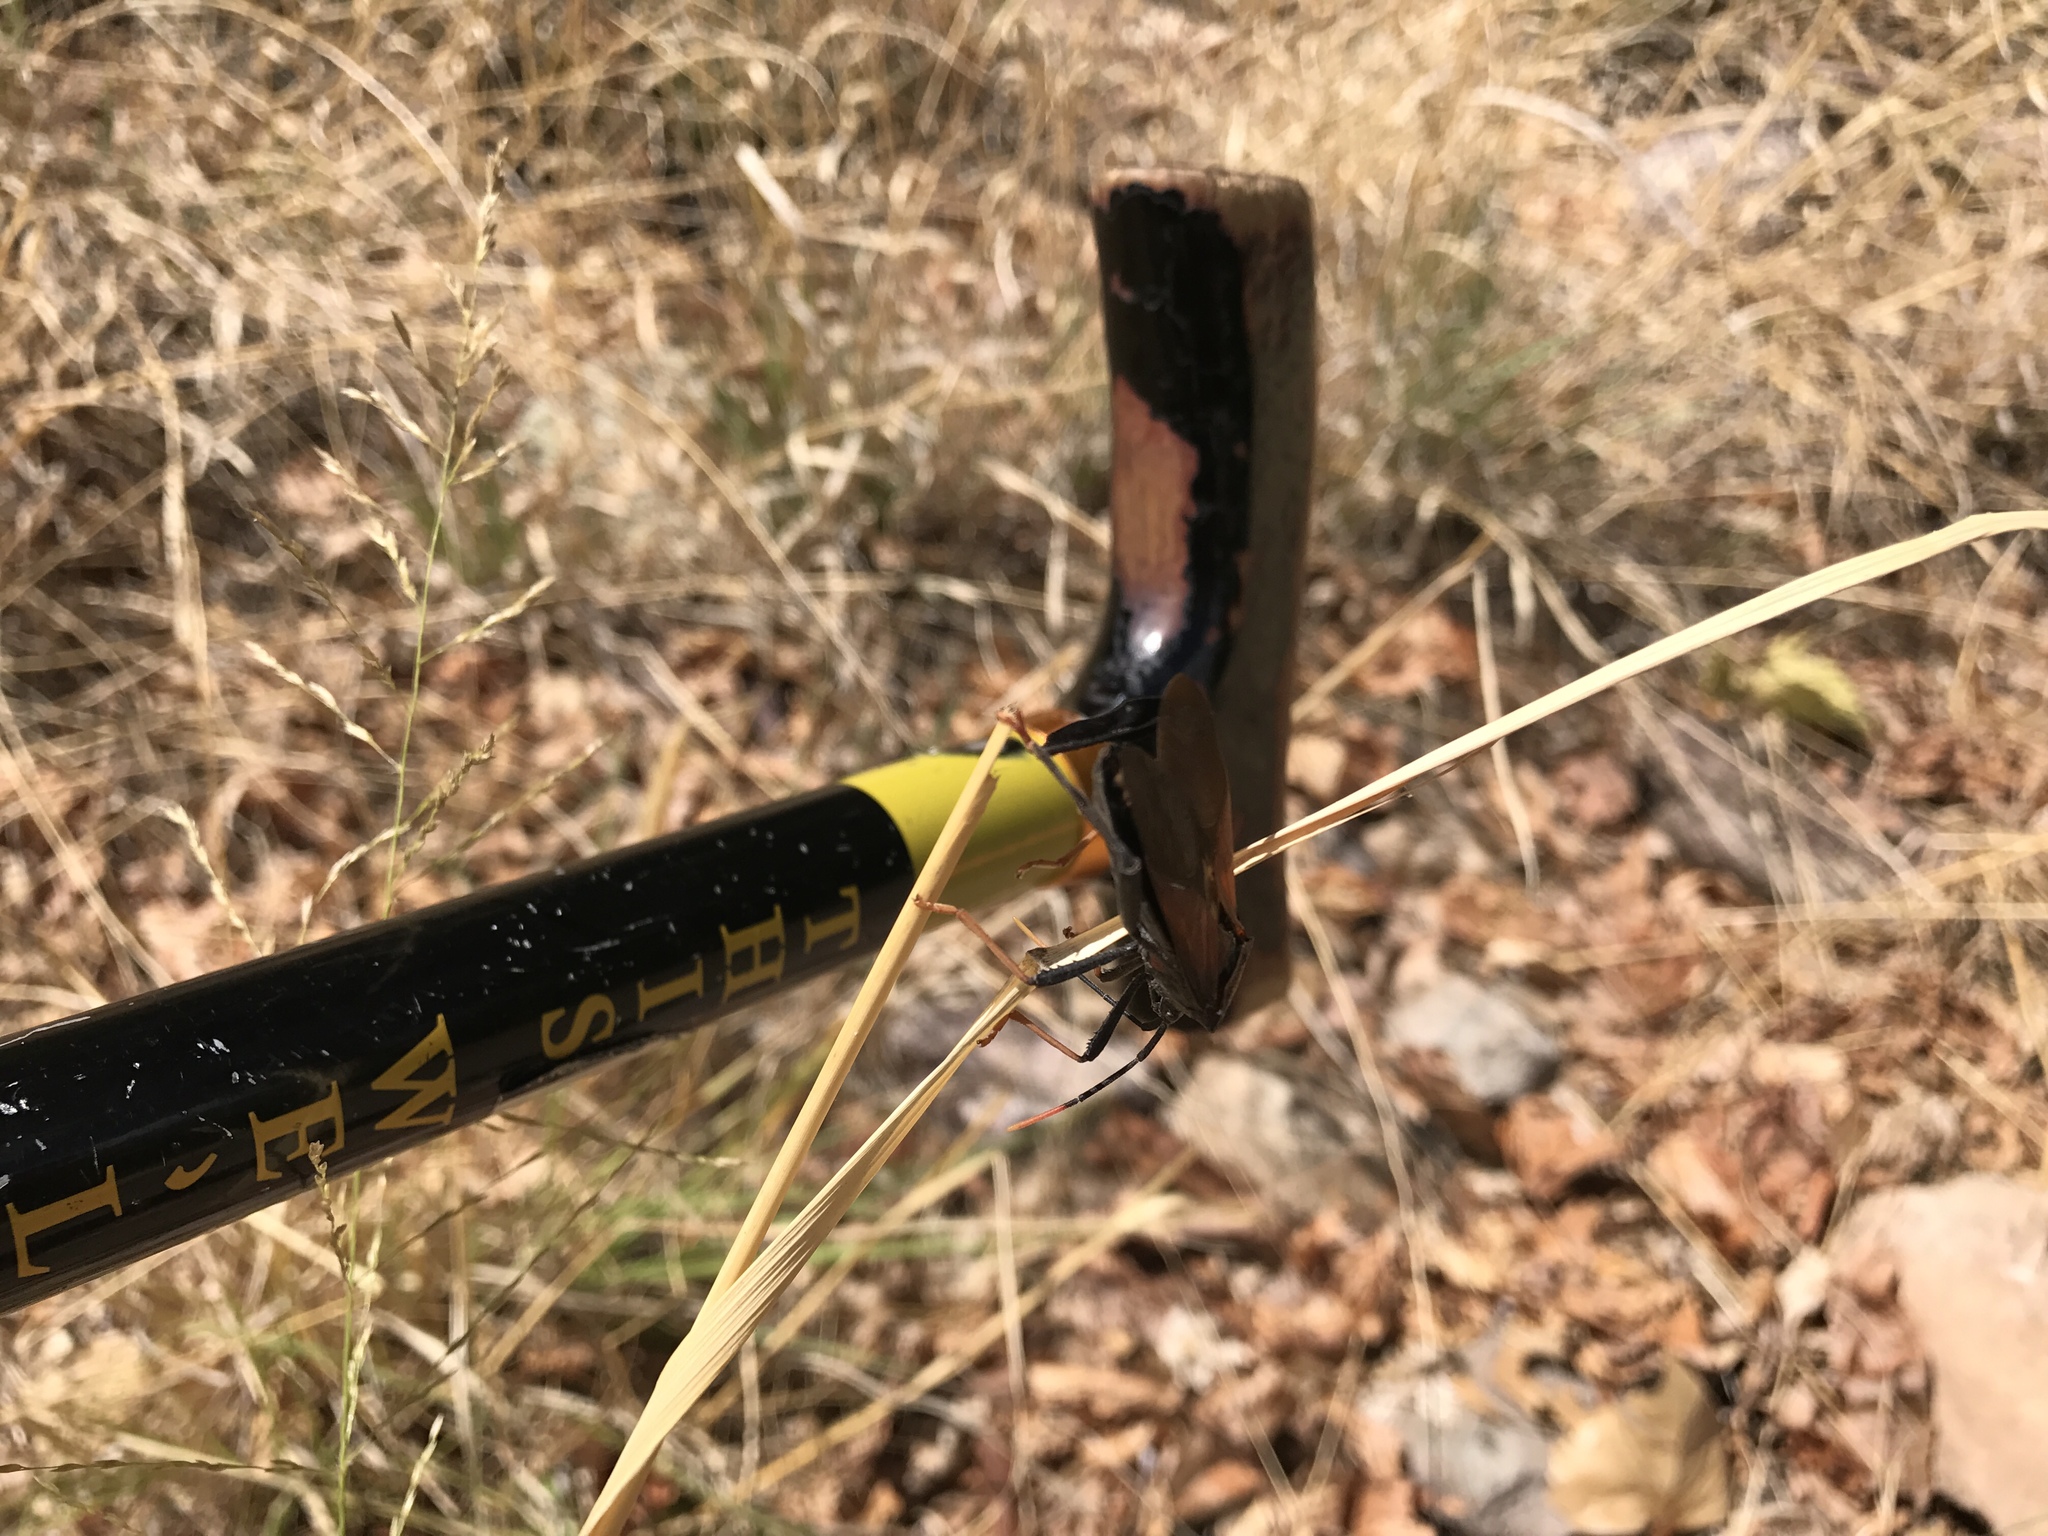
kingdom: Animalia
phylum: Arthropoda
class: Insecta
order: Hemiptera
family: Coreidae
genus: Acanthocephala
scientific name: Acanthocephala thomasi
